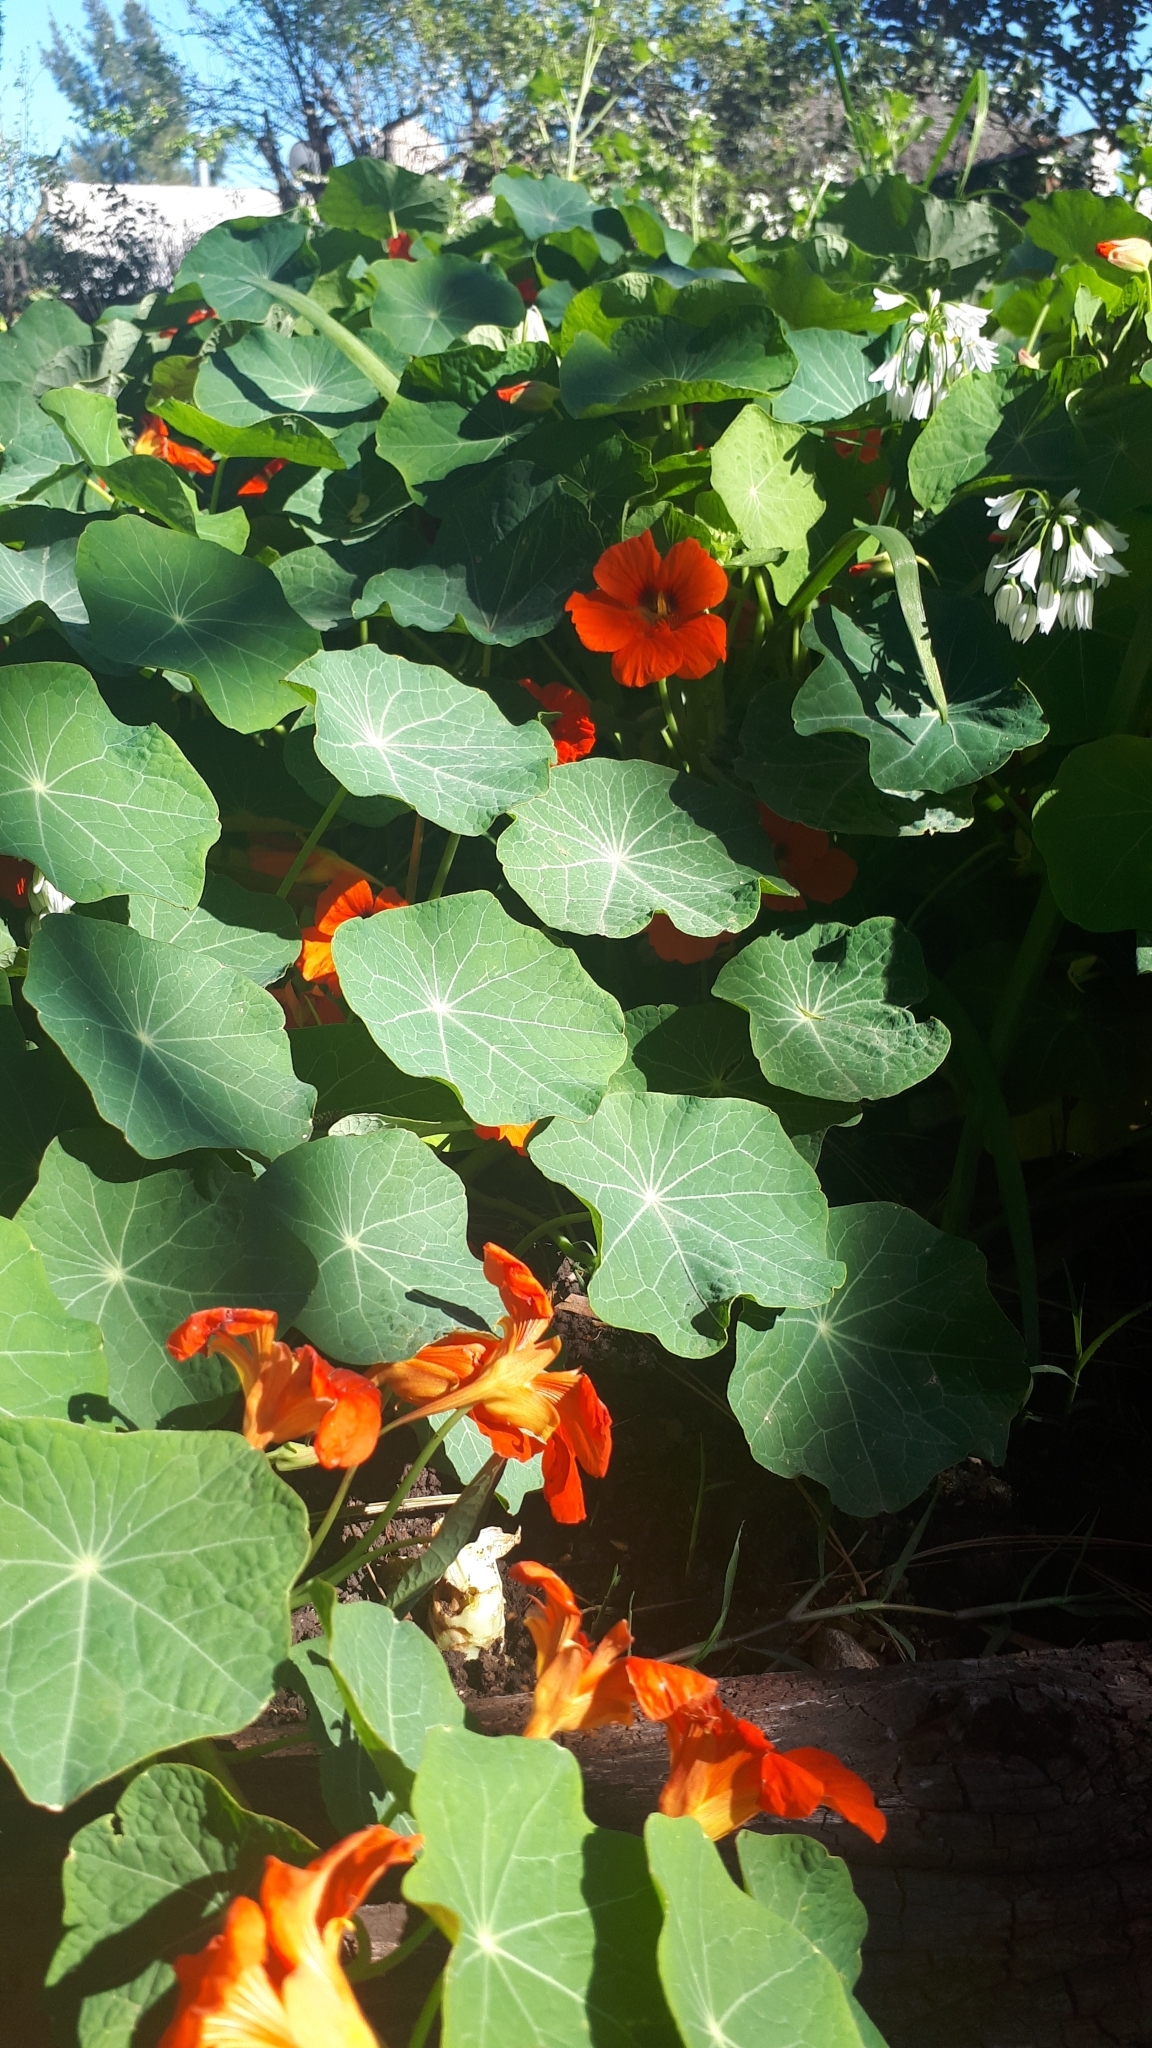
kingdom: Plantae
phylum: Tracheophyta
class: Magnoliopsida
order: Brassicales
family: Tropaeolaceae
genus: Tropaeolum
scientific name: Tropaeolum majus
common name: Nasturtium
